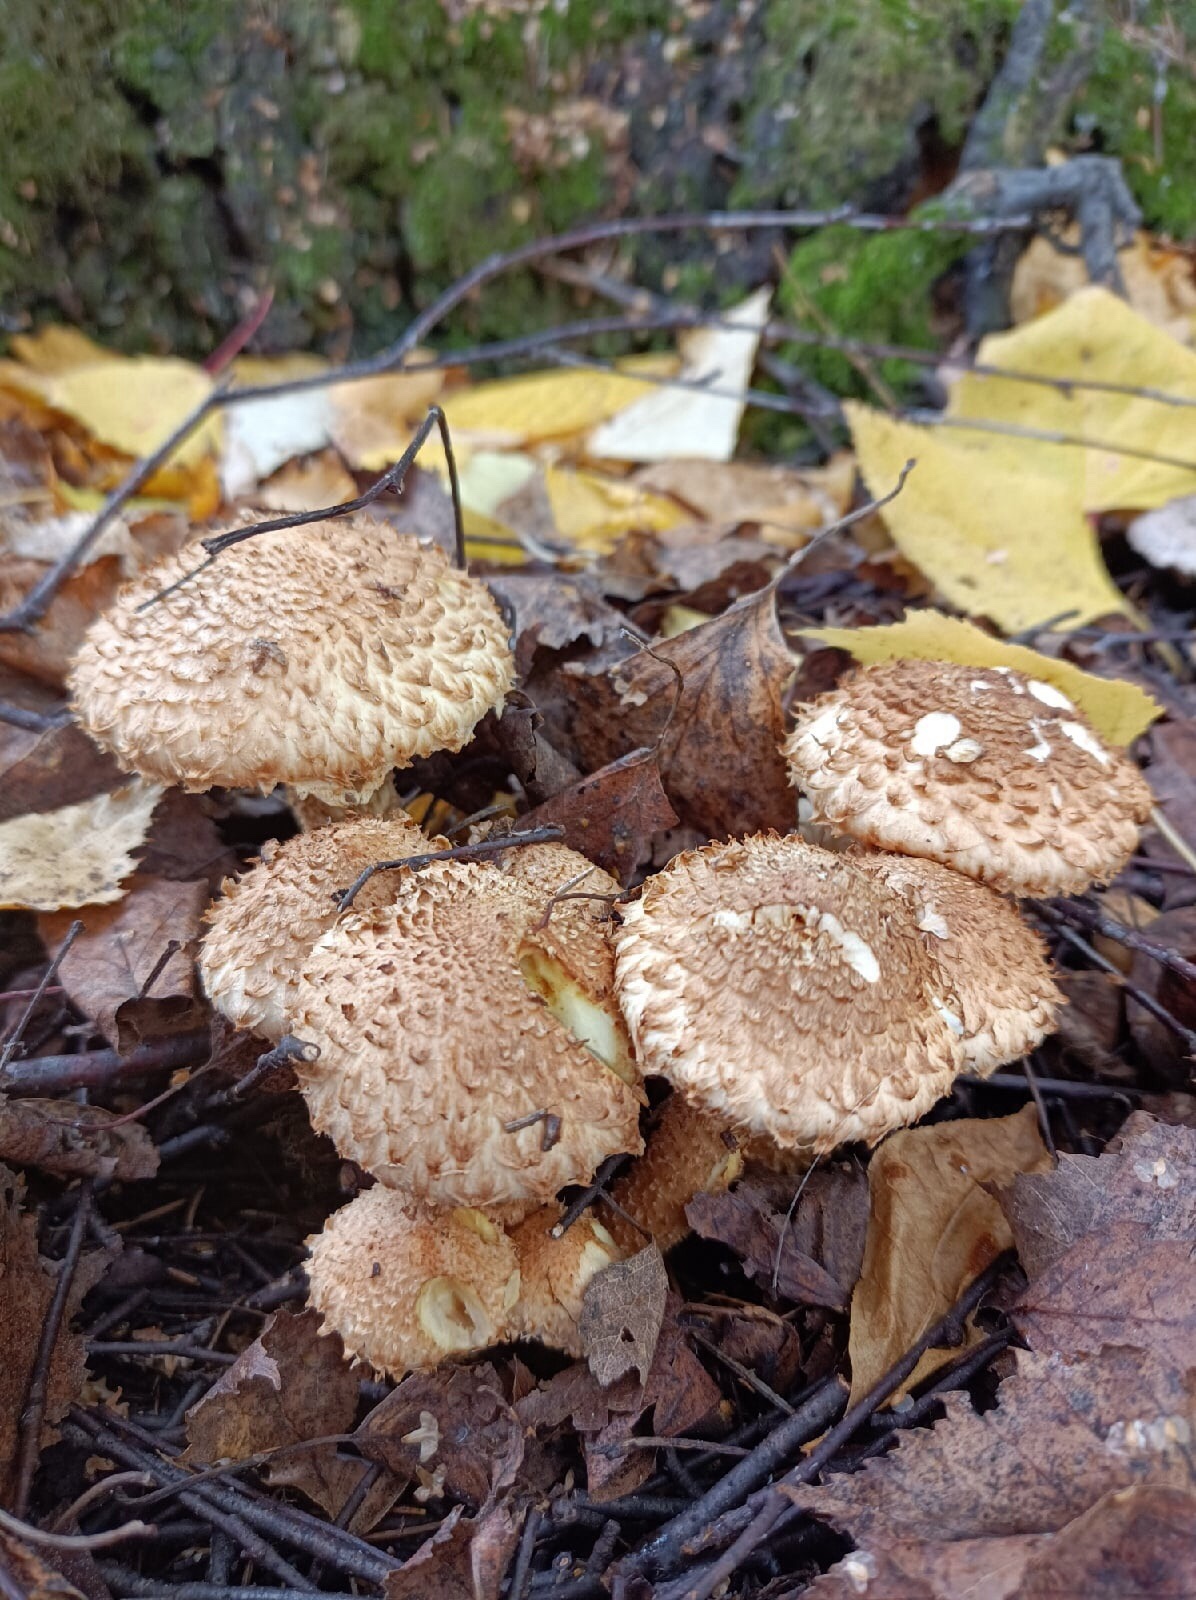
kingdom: Fungi
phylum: Basidiomycota
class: Agaricomycetes
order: Agaricales
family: Strophariaceae
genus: Pholiota
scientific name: Pholiota squarrosa
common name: Shaggy pholiota
